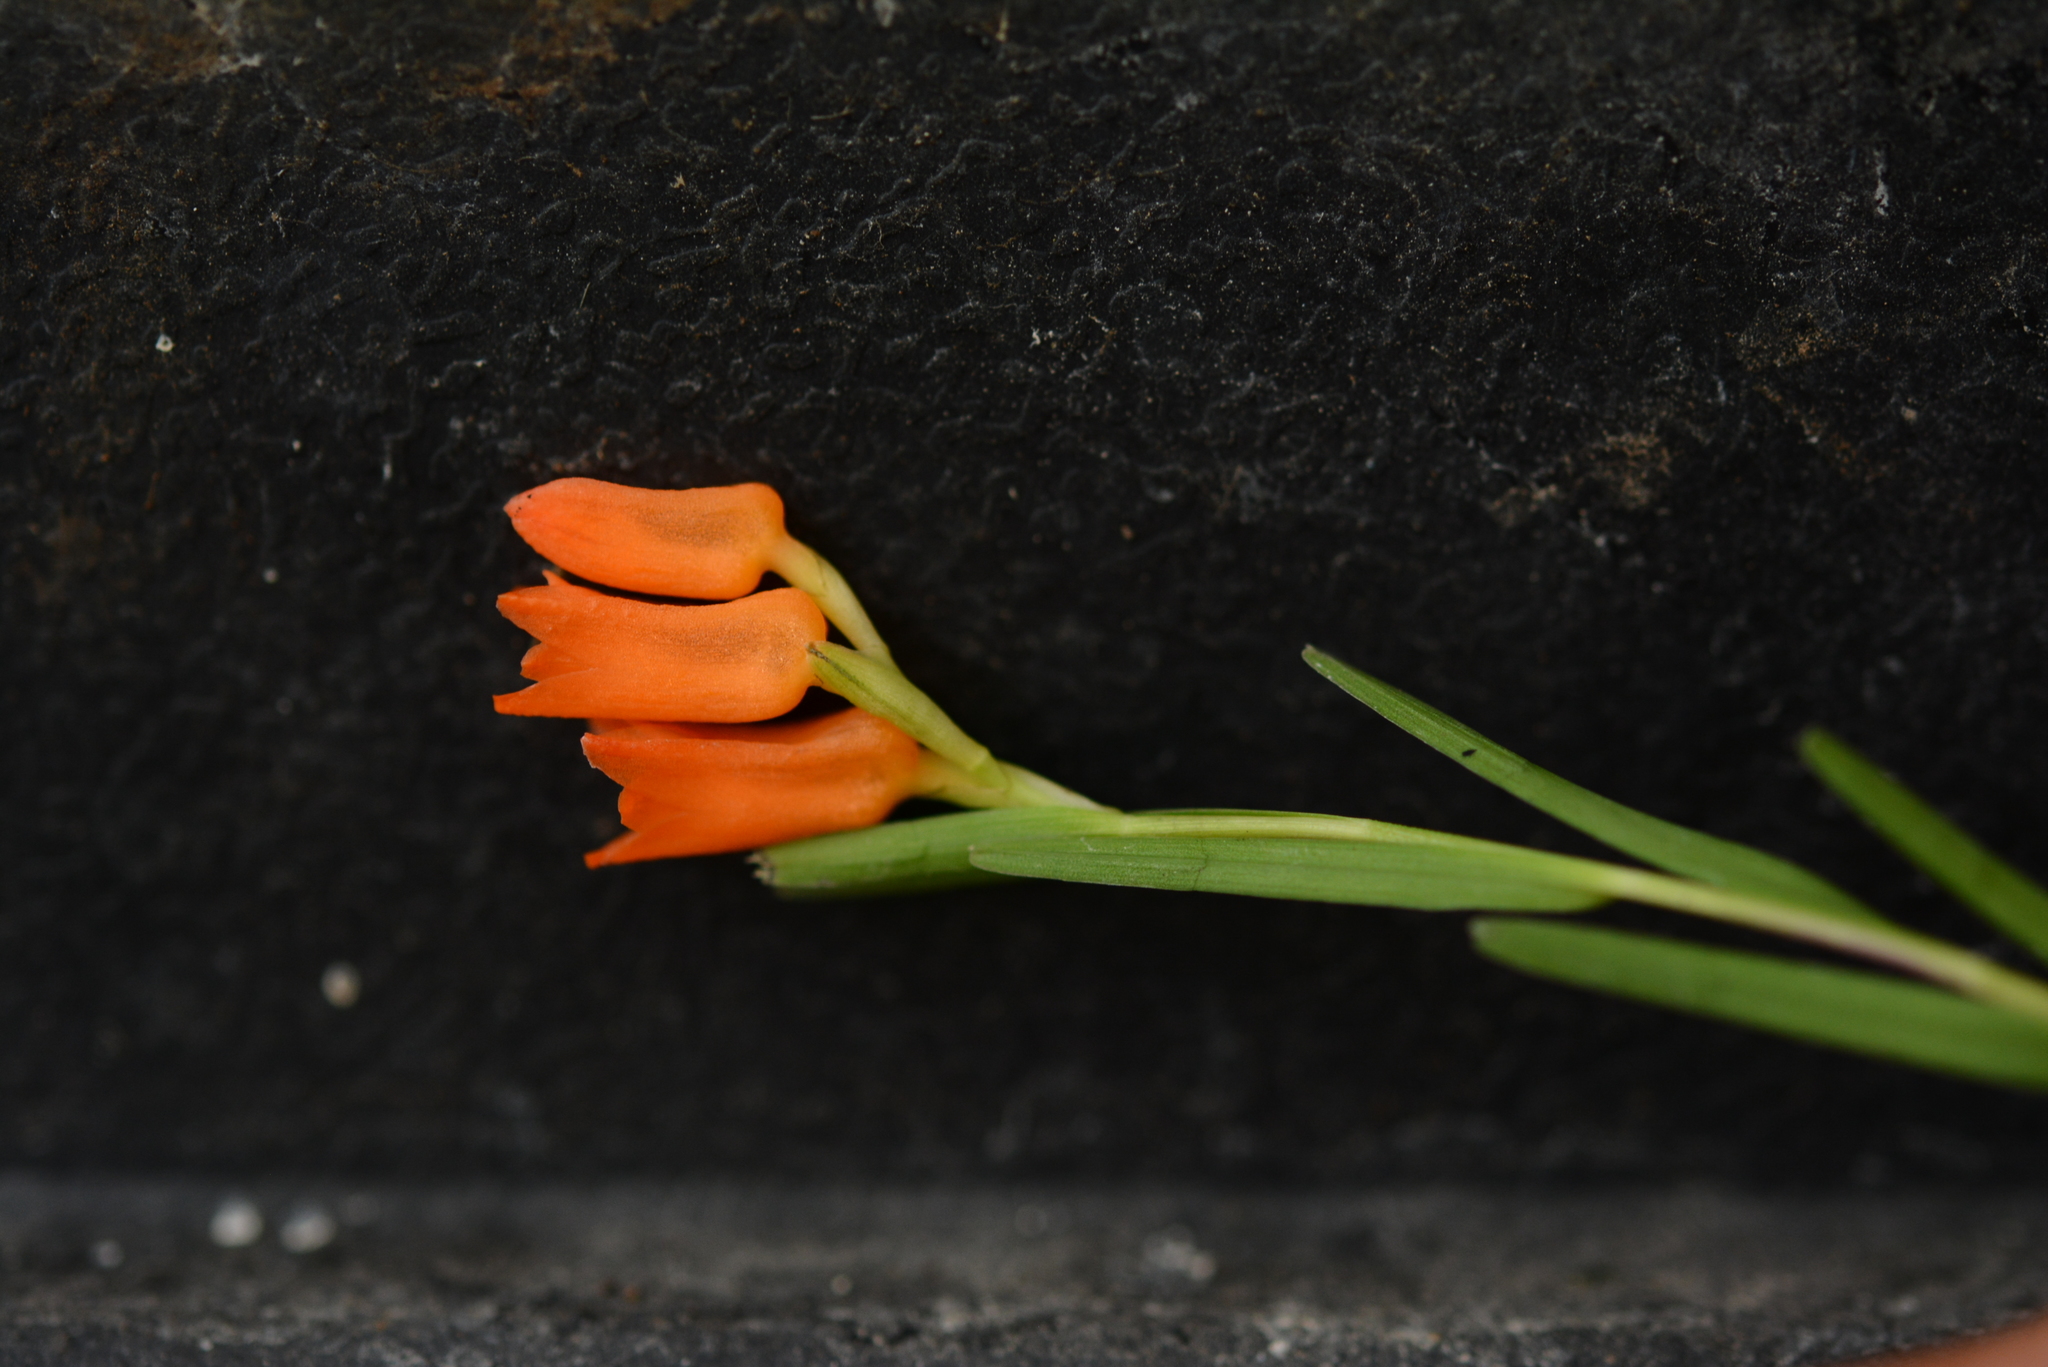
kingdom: Plantae
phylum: Tracheophyta
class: Liliopsida
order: Asparagales
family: Orchidaceae
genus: Isochilus
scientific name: Isochilus aurantiacus
